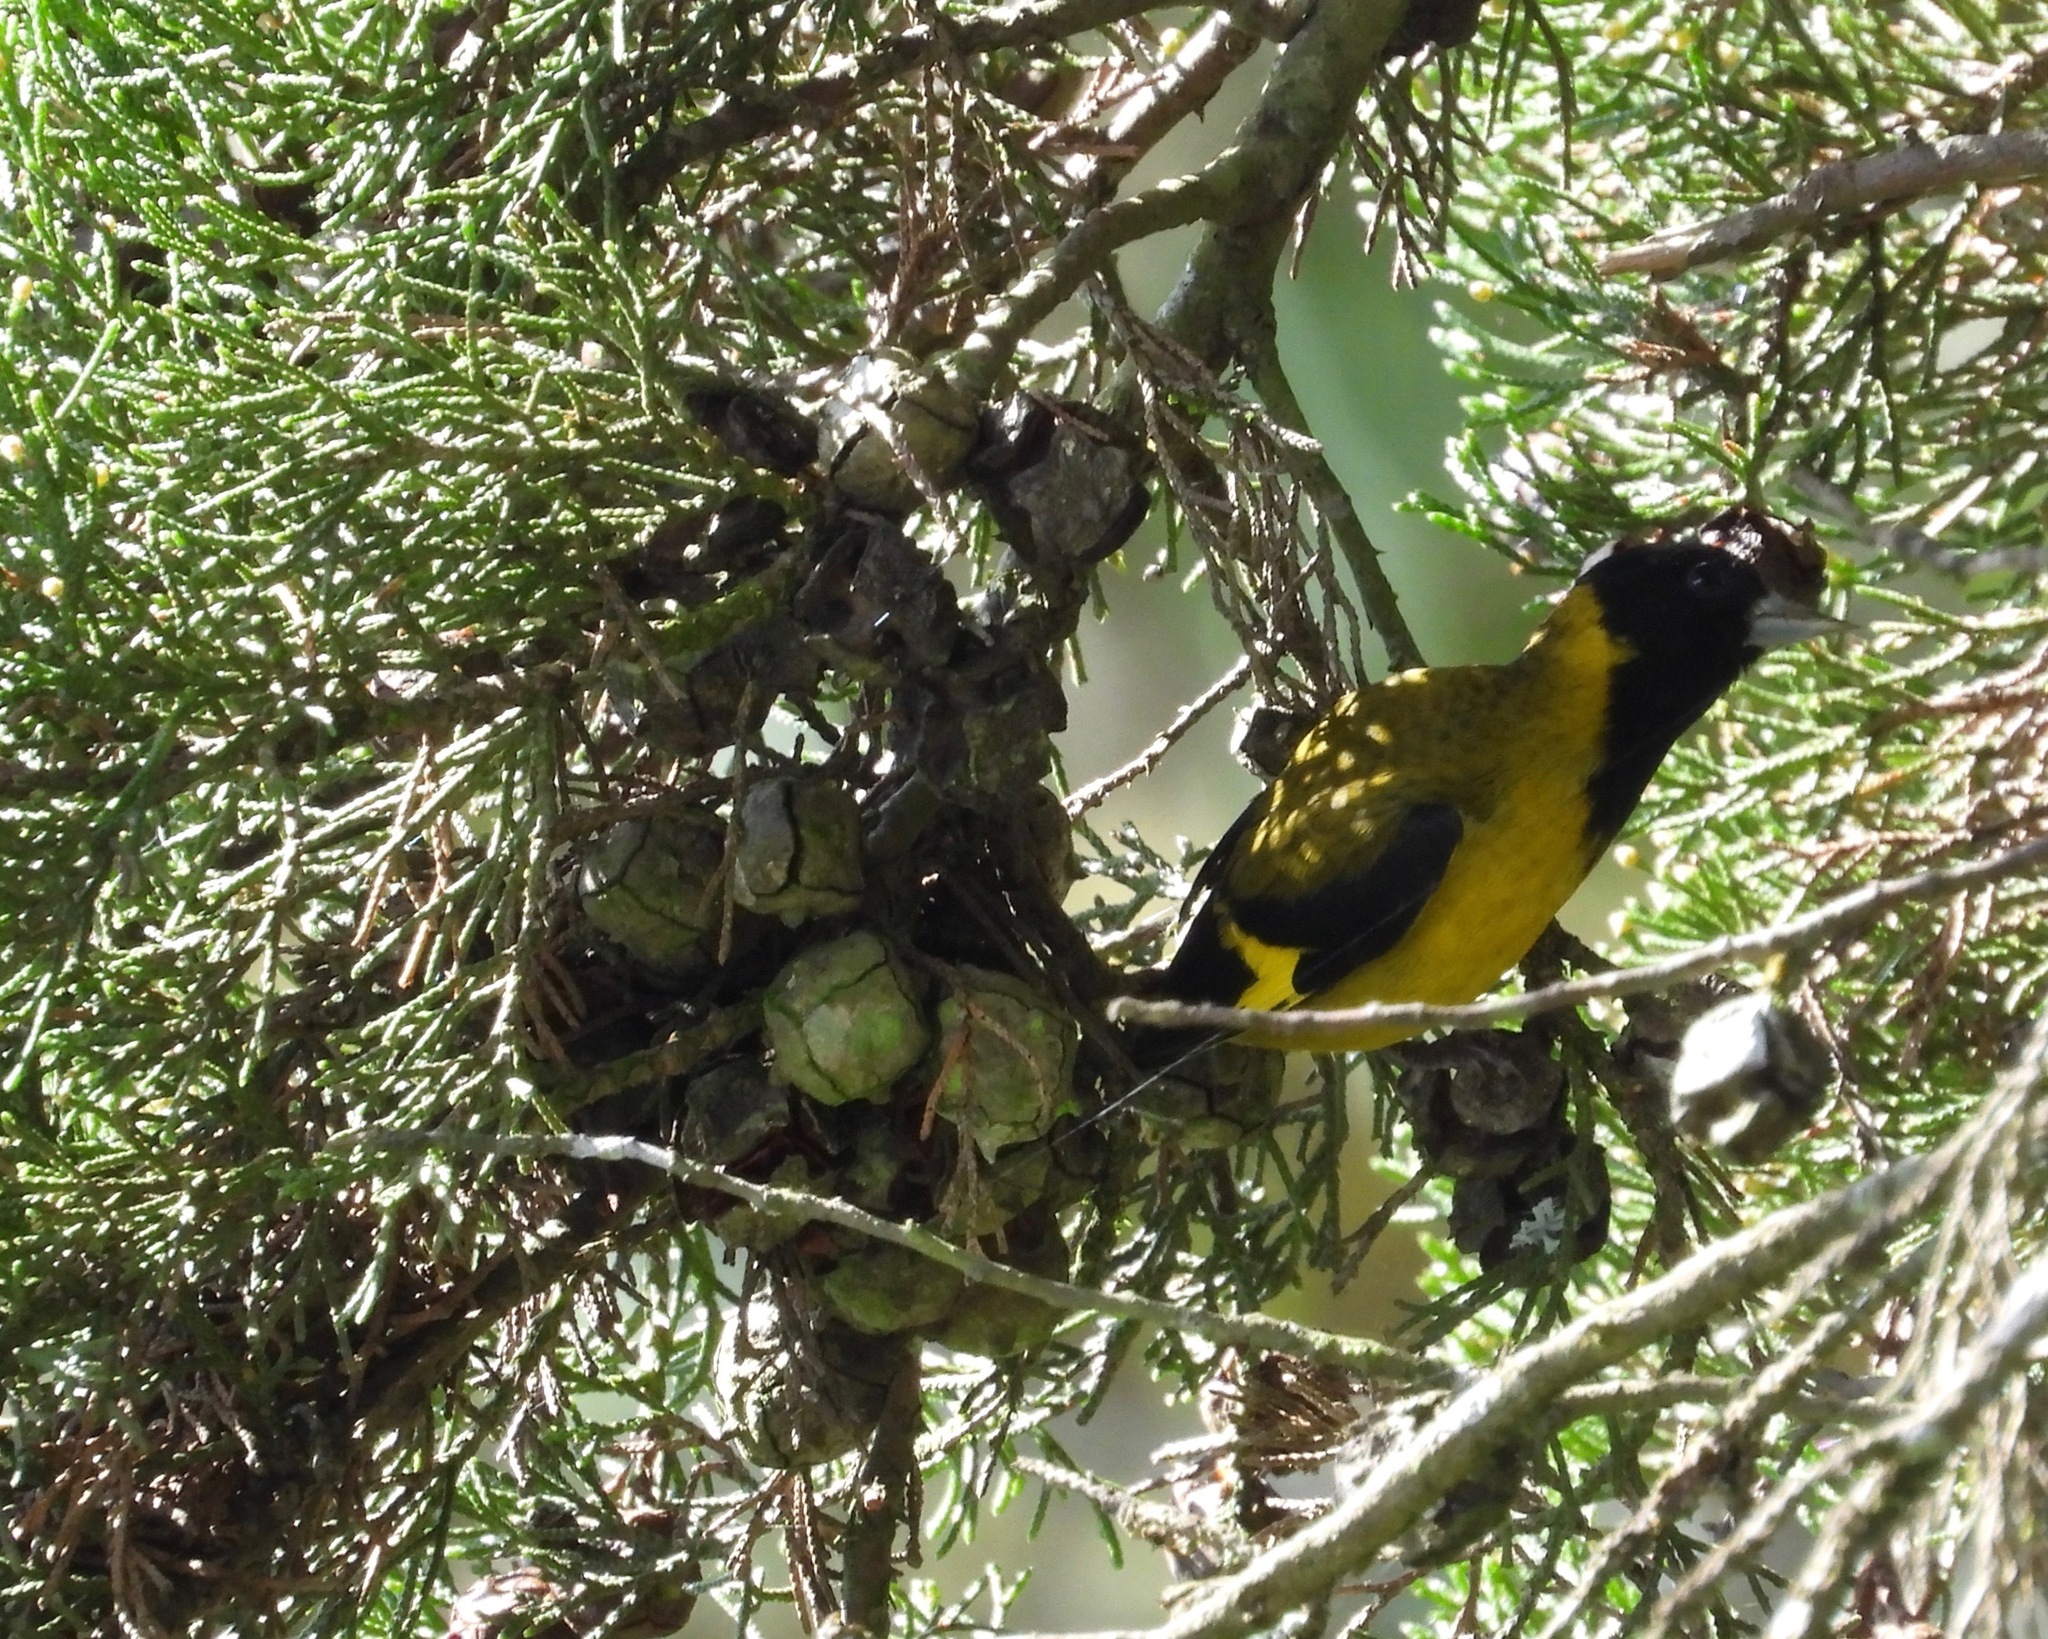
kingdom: Animalia
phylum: Chordata
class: Aves
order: Passeriformes
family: Fringillidae
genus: Spinus
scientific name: Spinus notatus
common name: Black-headed siskin
